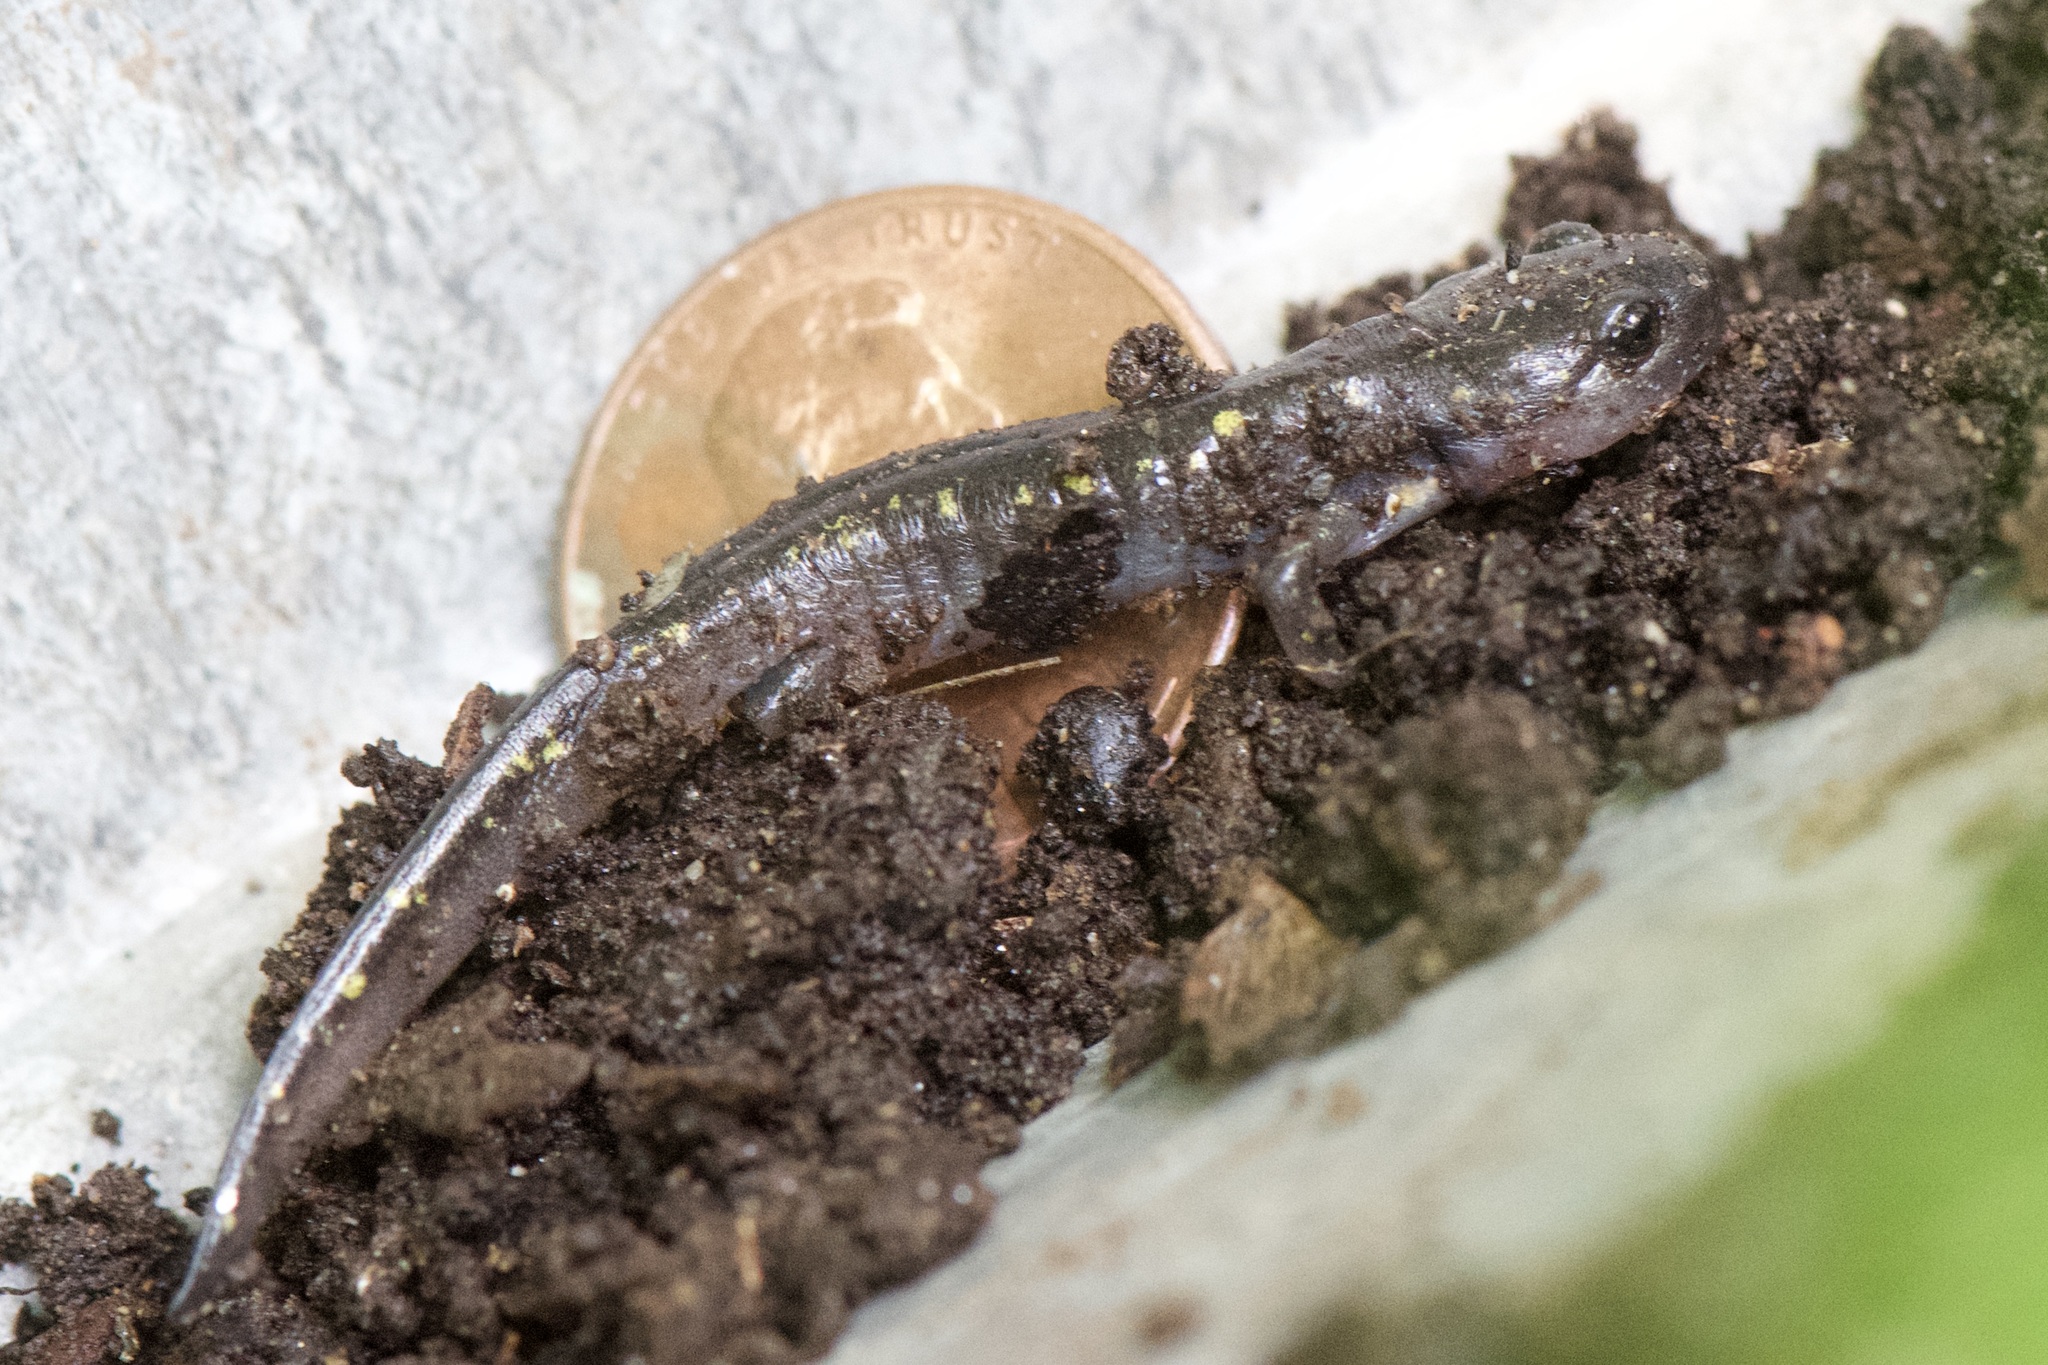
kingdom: Animalia
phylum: Chordata
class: Amphibia
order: Caudata
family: Ambystomatidae
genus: Ambystoma
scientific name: Ambystoma maculatum
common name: Spotted salamander
